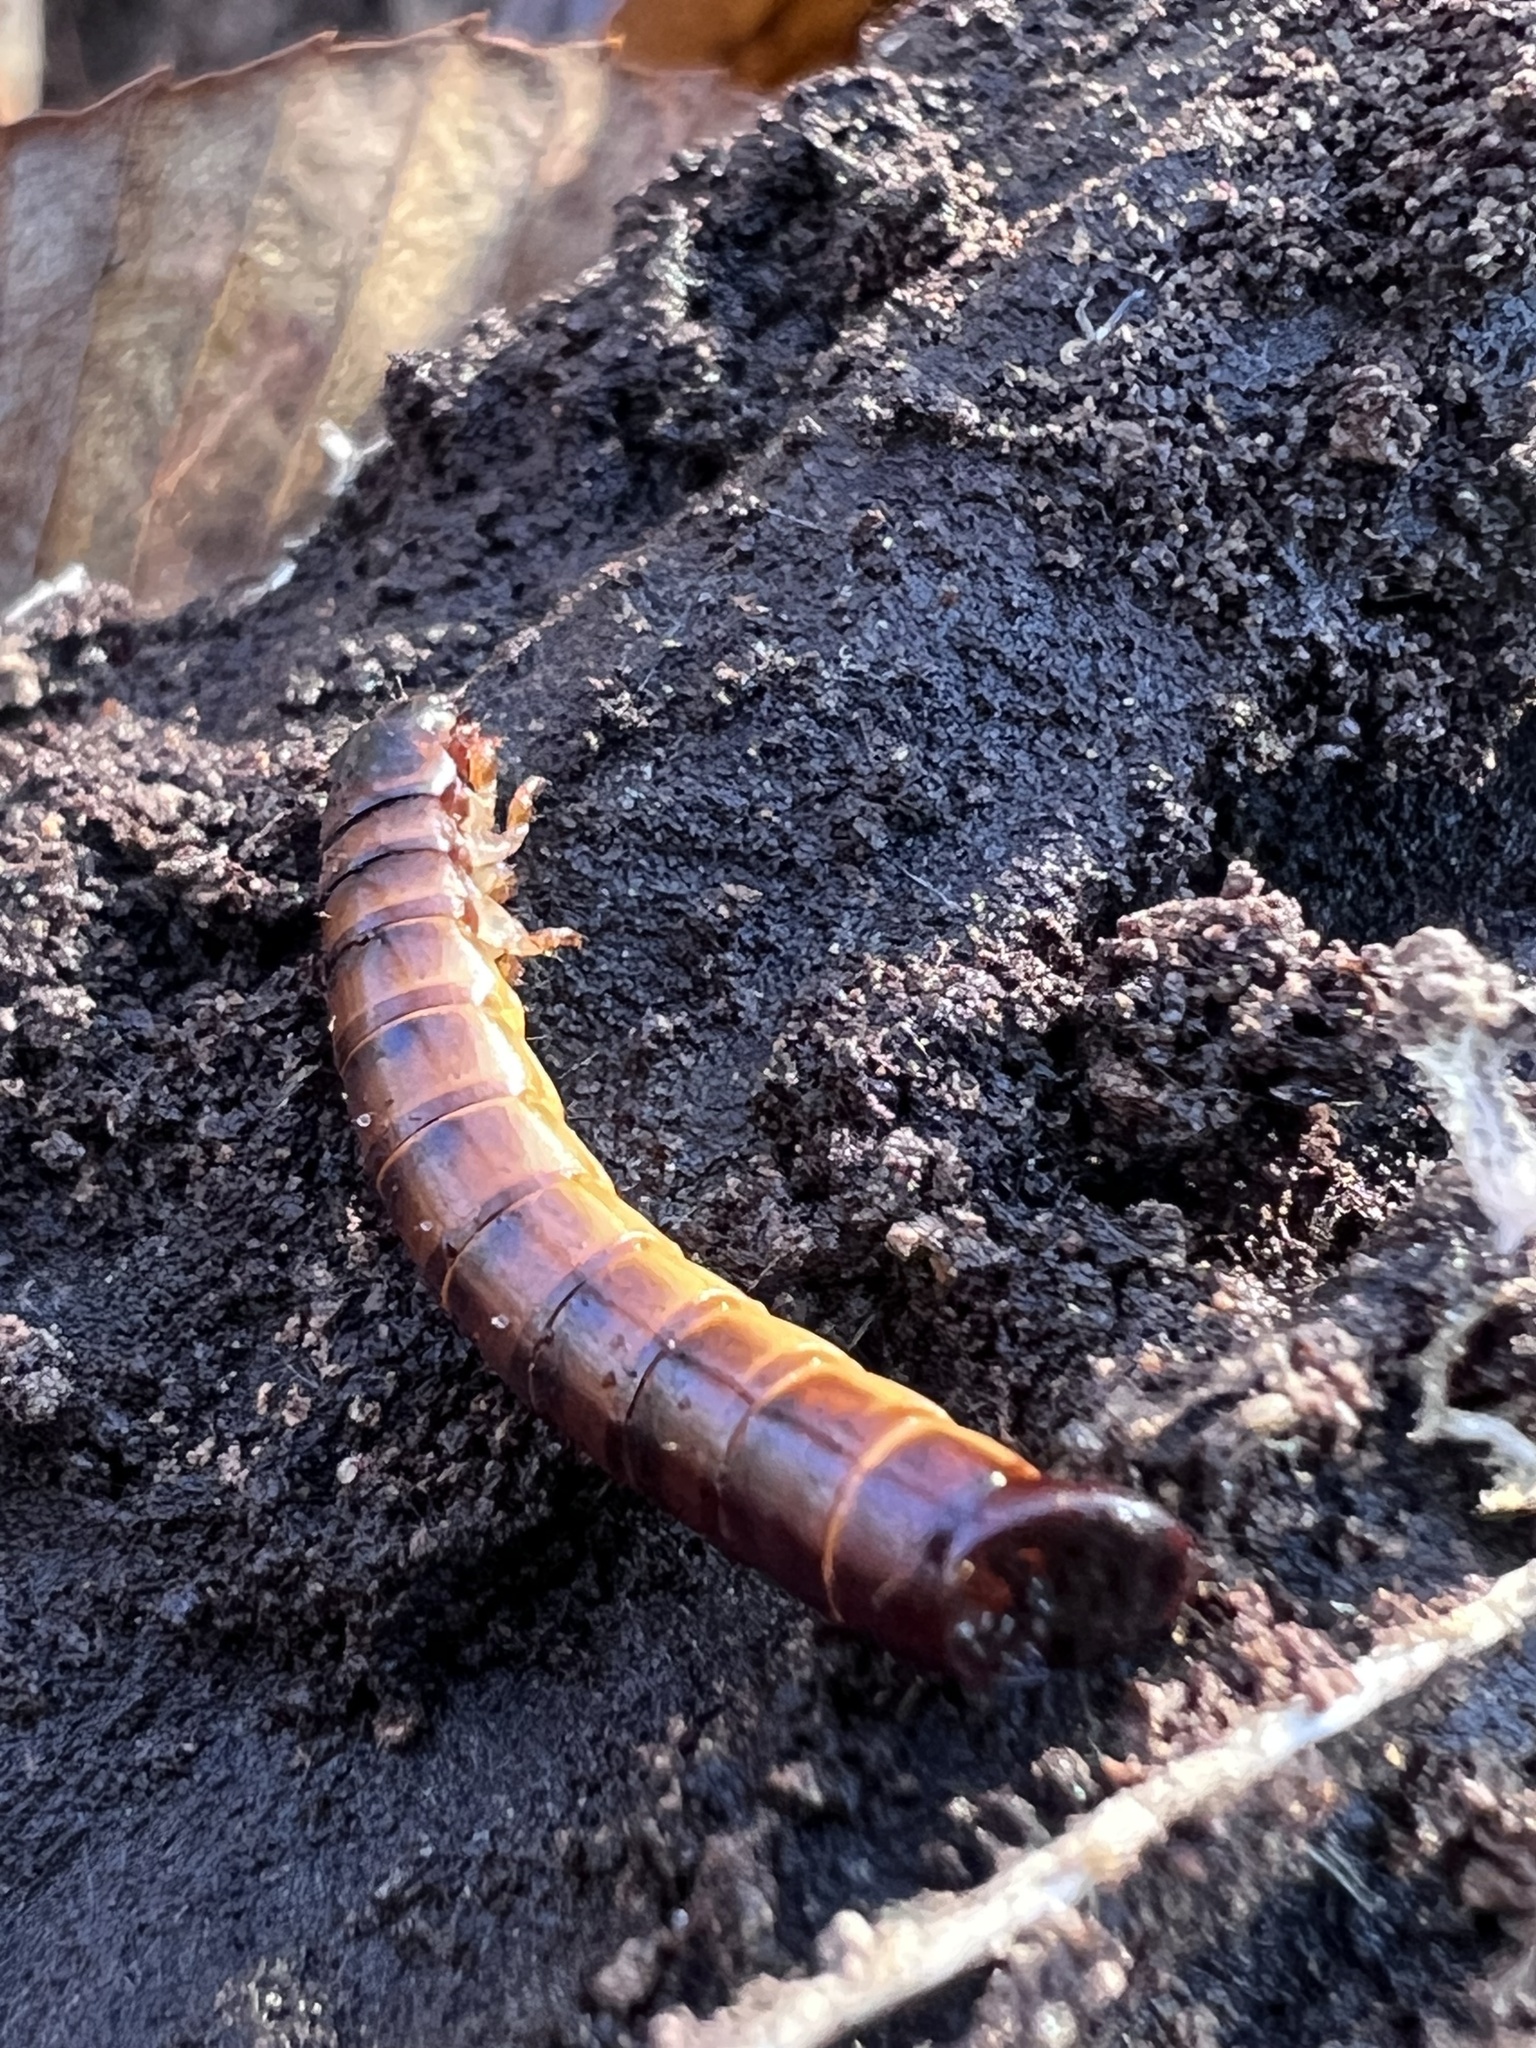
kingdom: Animalia
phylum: Arthropoda
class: Insecta
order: Coleoptera
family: Tenebrionidae
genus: Meracantha
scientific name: Meracantha contracta
